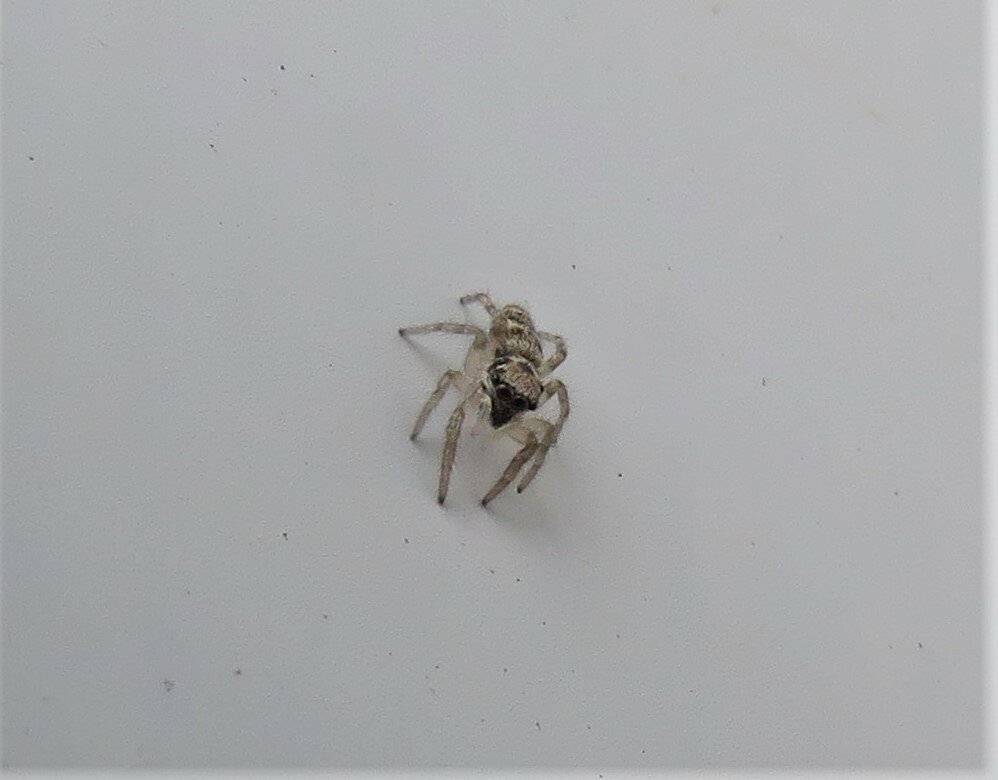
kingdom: Animalia
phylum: Arthropoda
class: Arachnida
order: Araneae
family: Salticidae
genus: Salticus
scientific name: Salticus scenicus
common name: Zebra jumper
